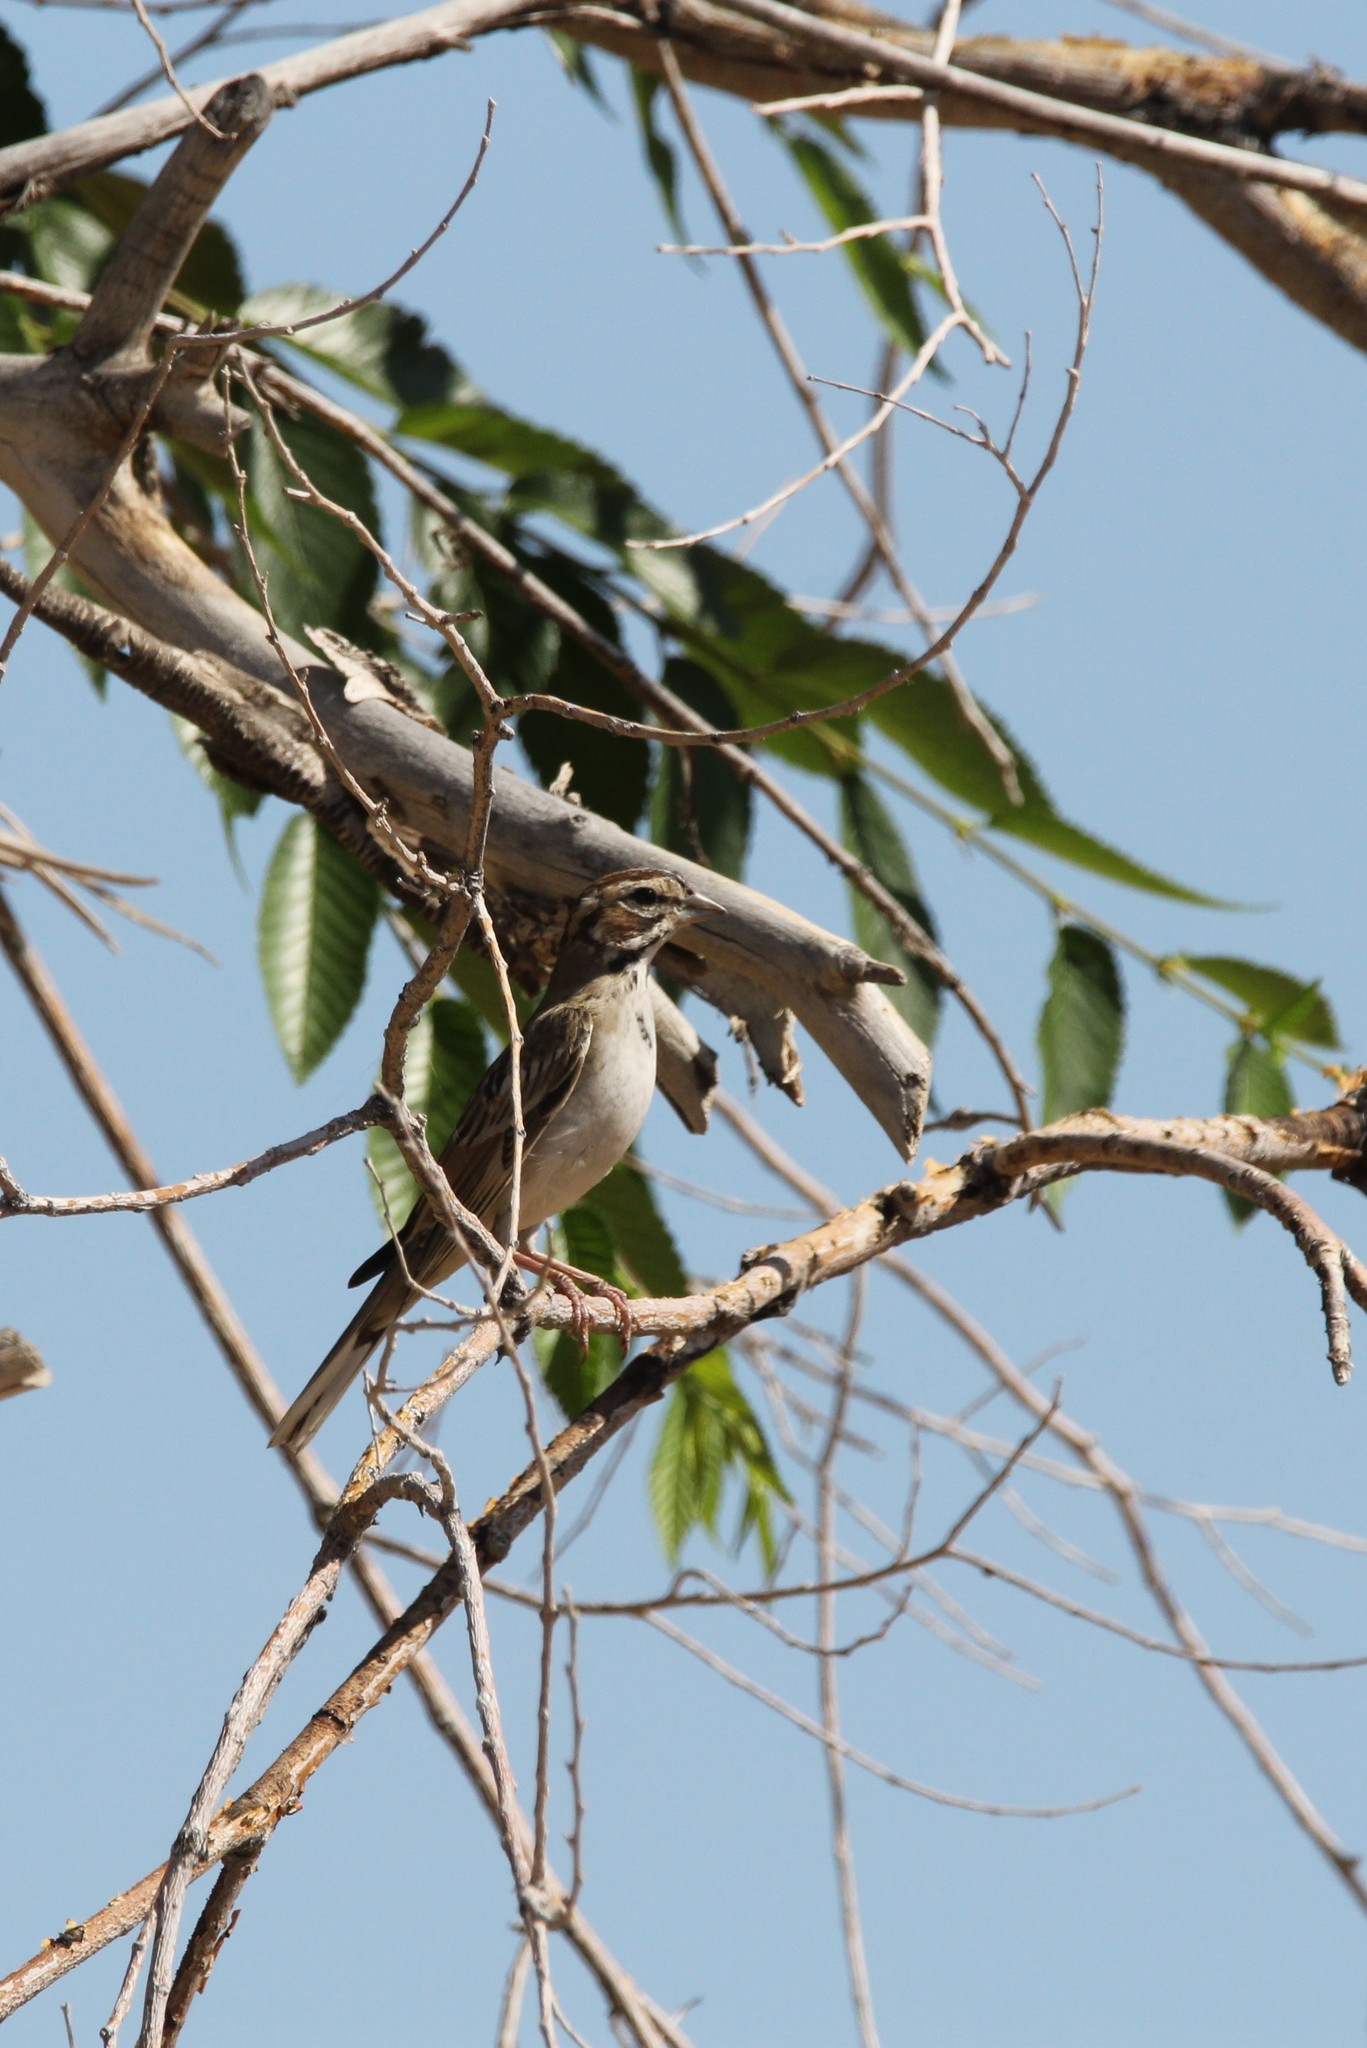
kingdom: Animalia
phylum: Chordata
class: Aves
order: Passeriformes
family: Passerellidae
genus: Chondestes
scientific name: Chondestes grammacus
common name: Lark sparrow
